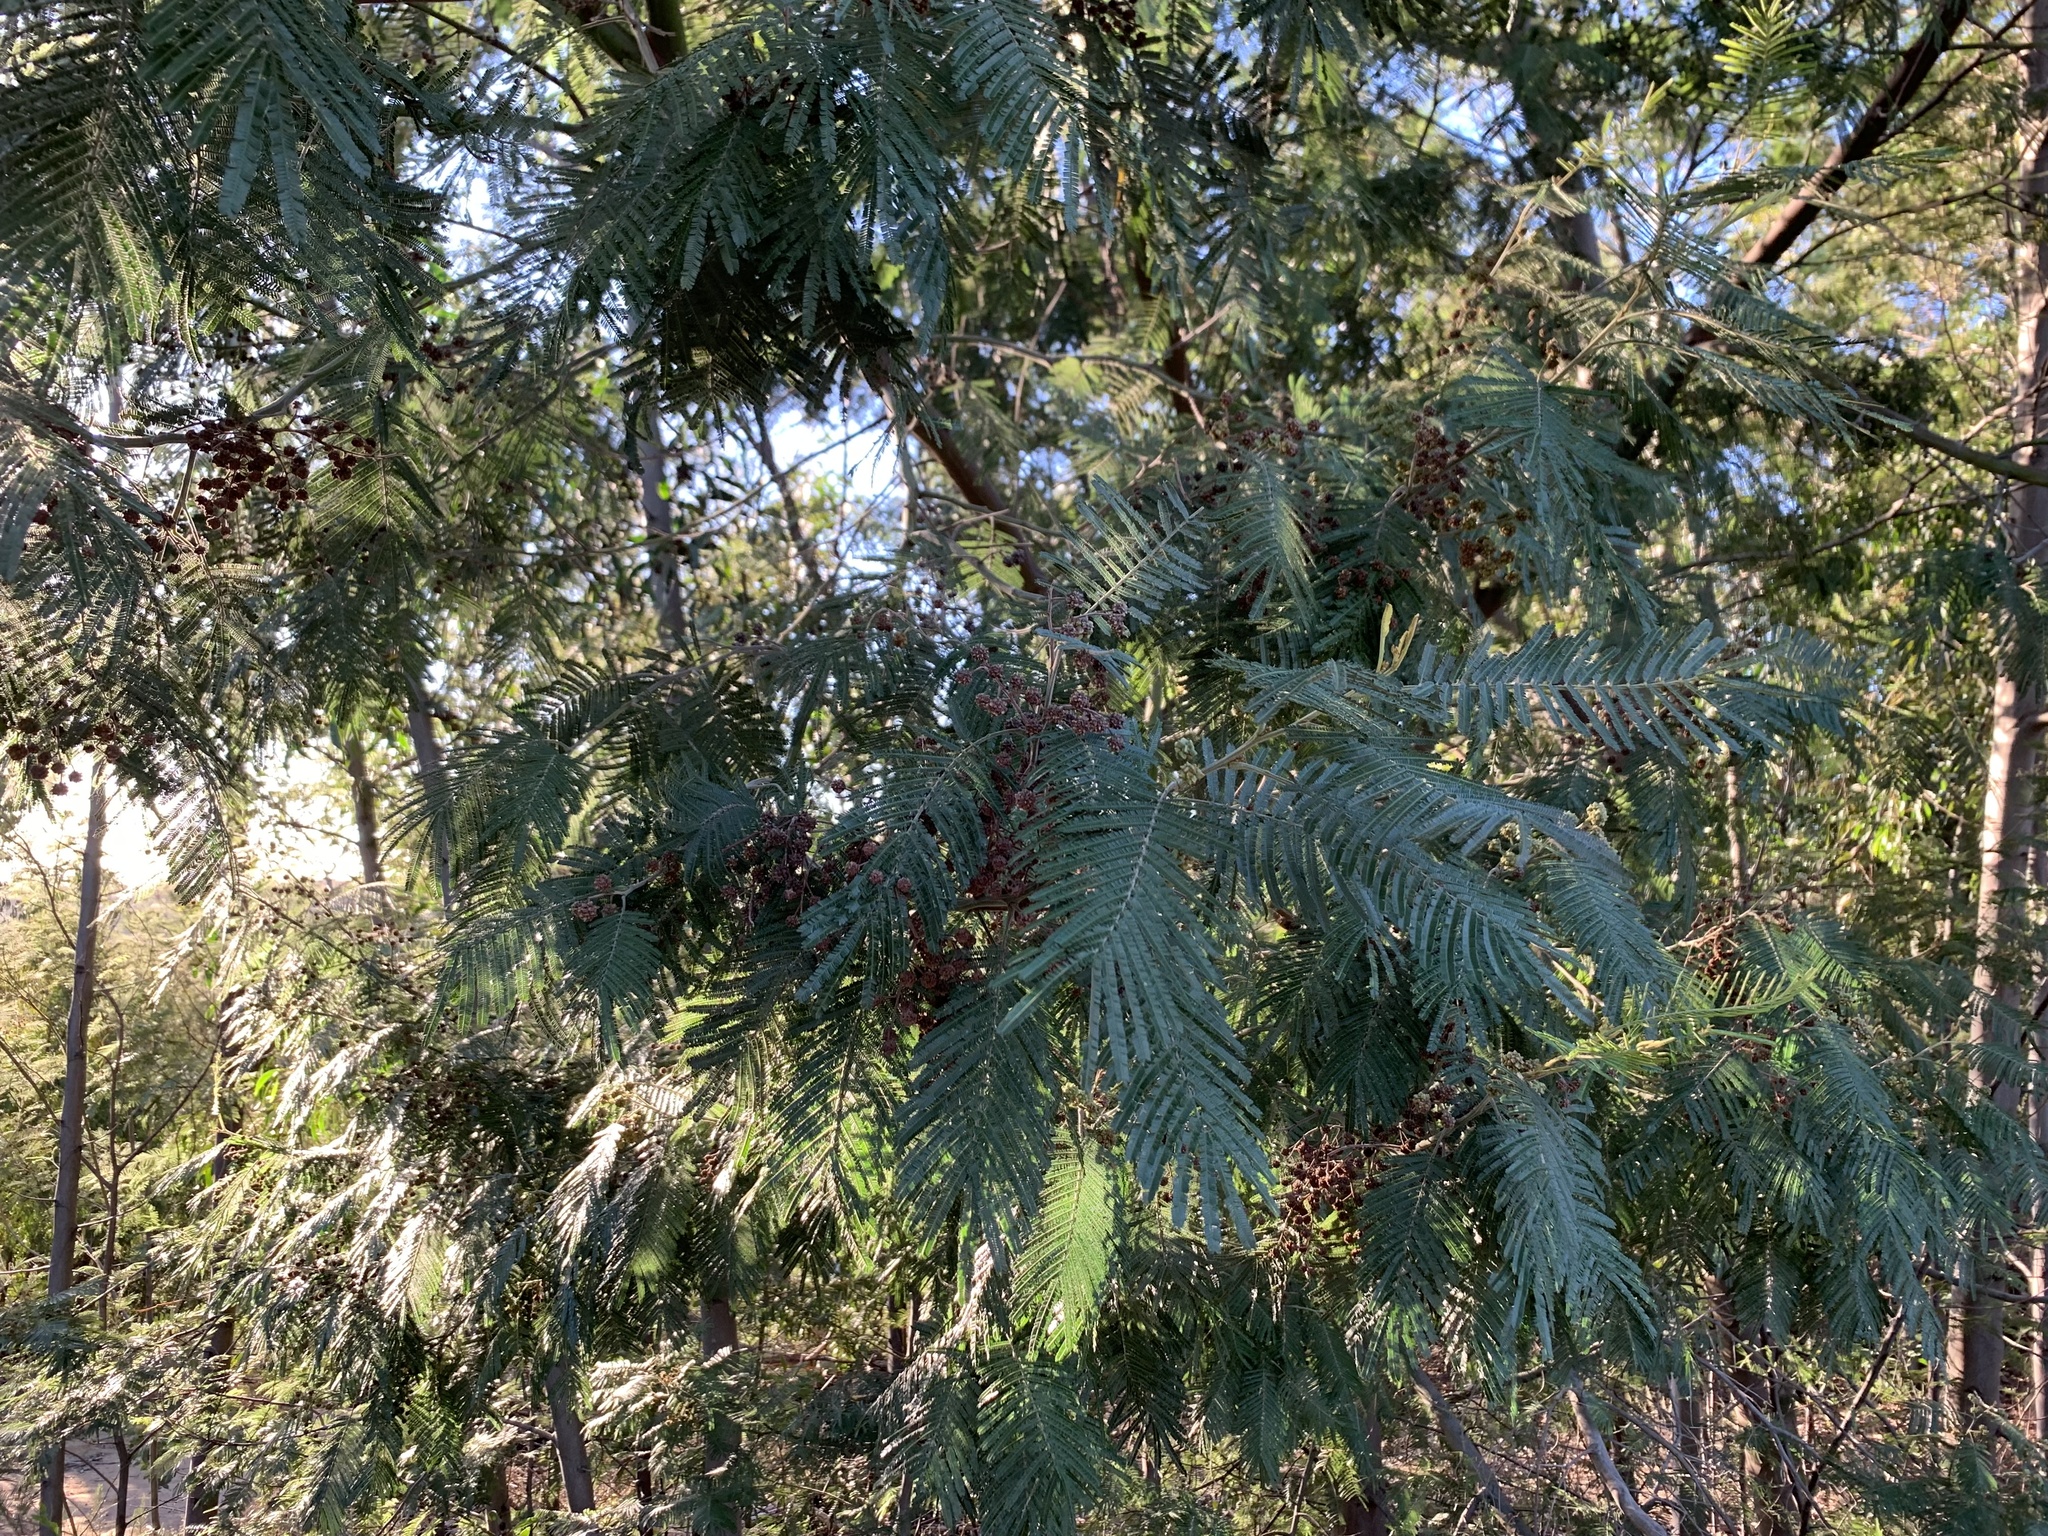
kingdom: Plantae
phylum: Tracheophyta
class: Magnoliopsida
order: Fabales
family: Fabaceae
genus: Acacia
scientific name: Acacia mearnsii
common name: Black wattle
